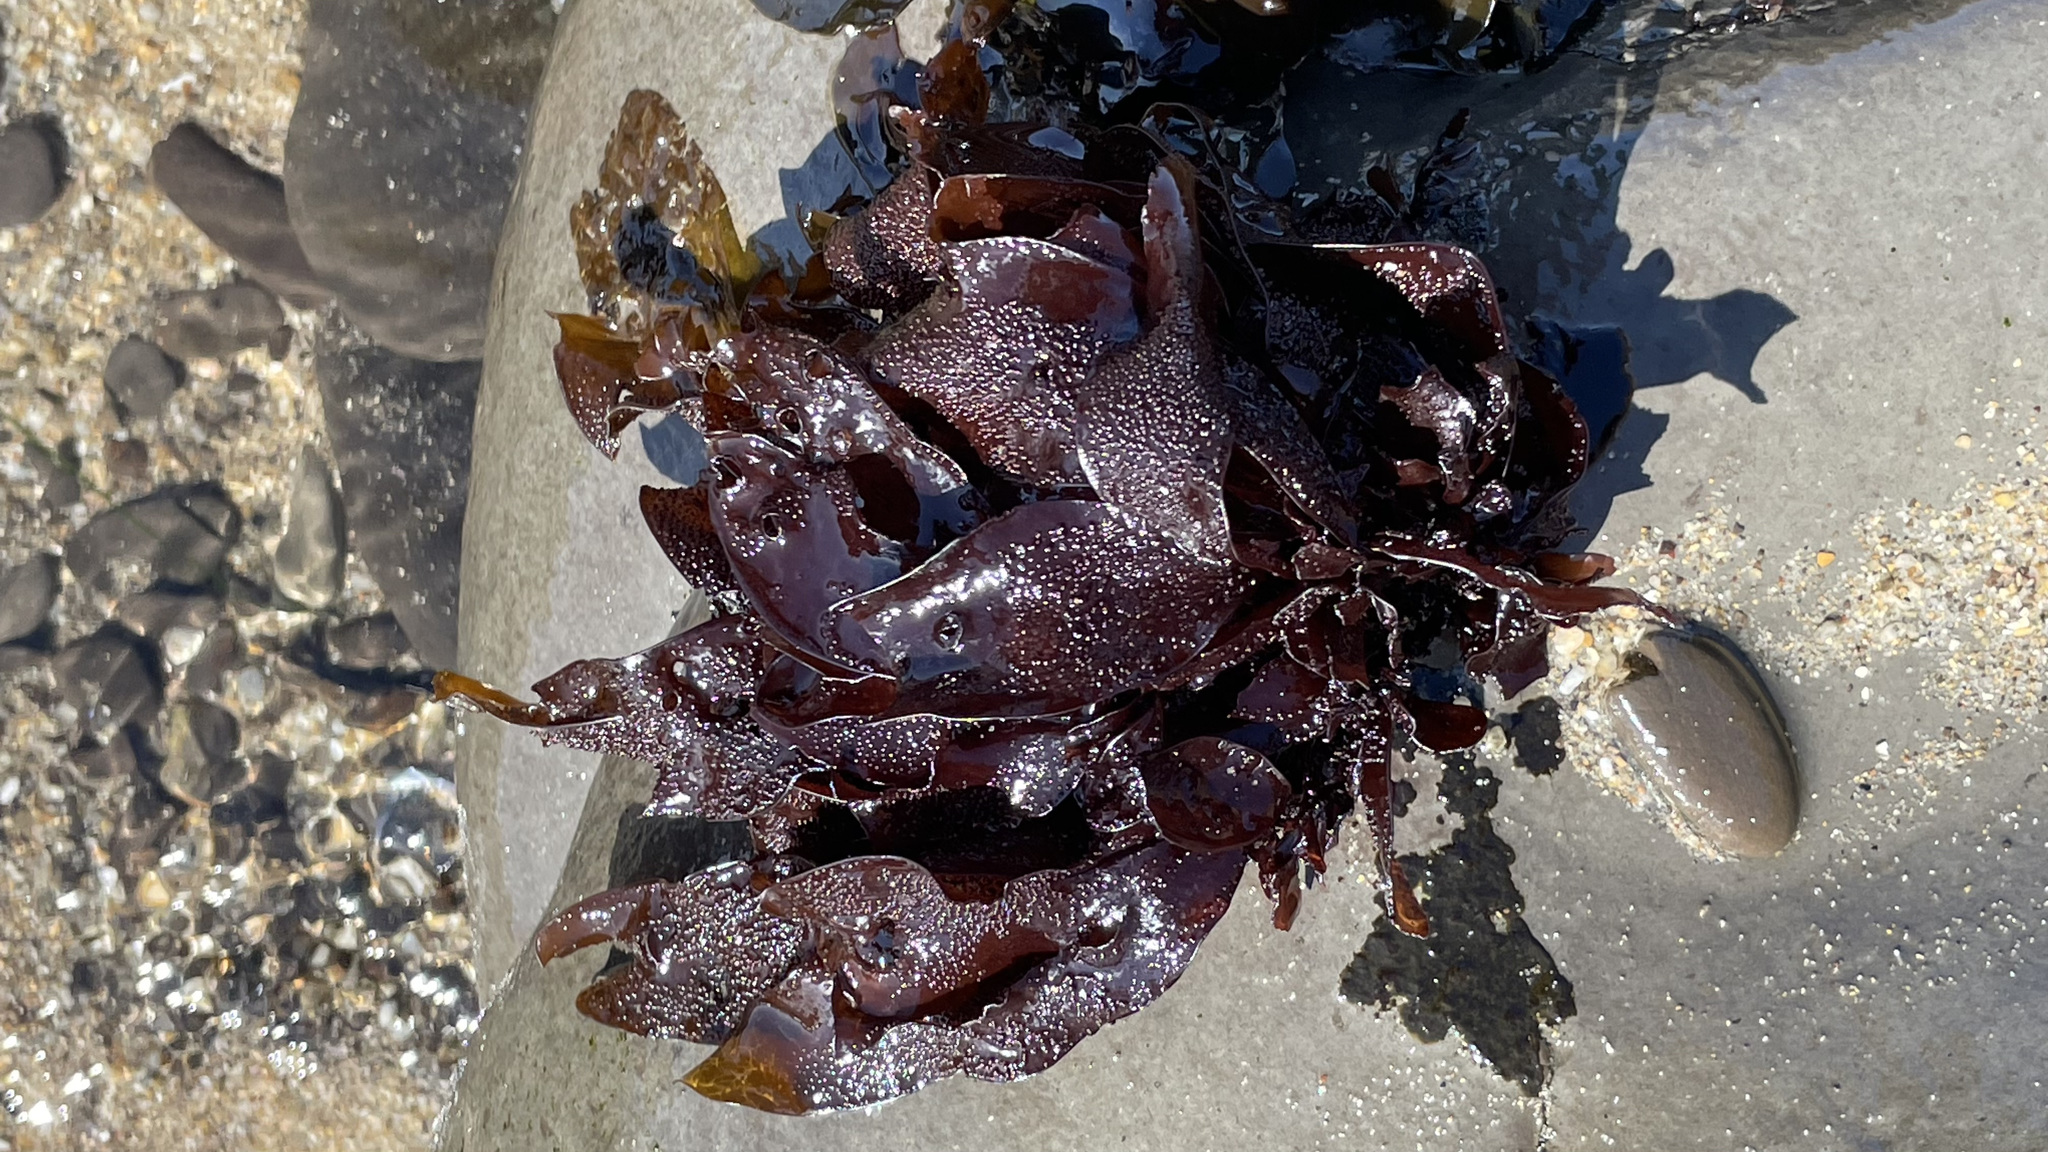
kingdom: Plantae
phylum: Rhodophyta
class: Florideophyceae
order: Gigartinales
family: Phyllophoraceae
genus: Mastocarpus
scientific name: Mastocarpus papillatus
